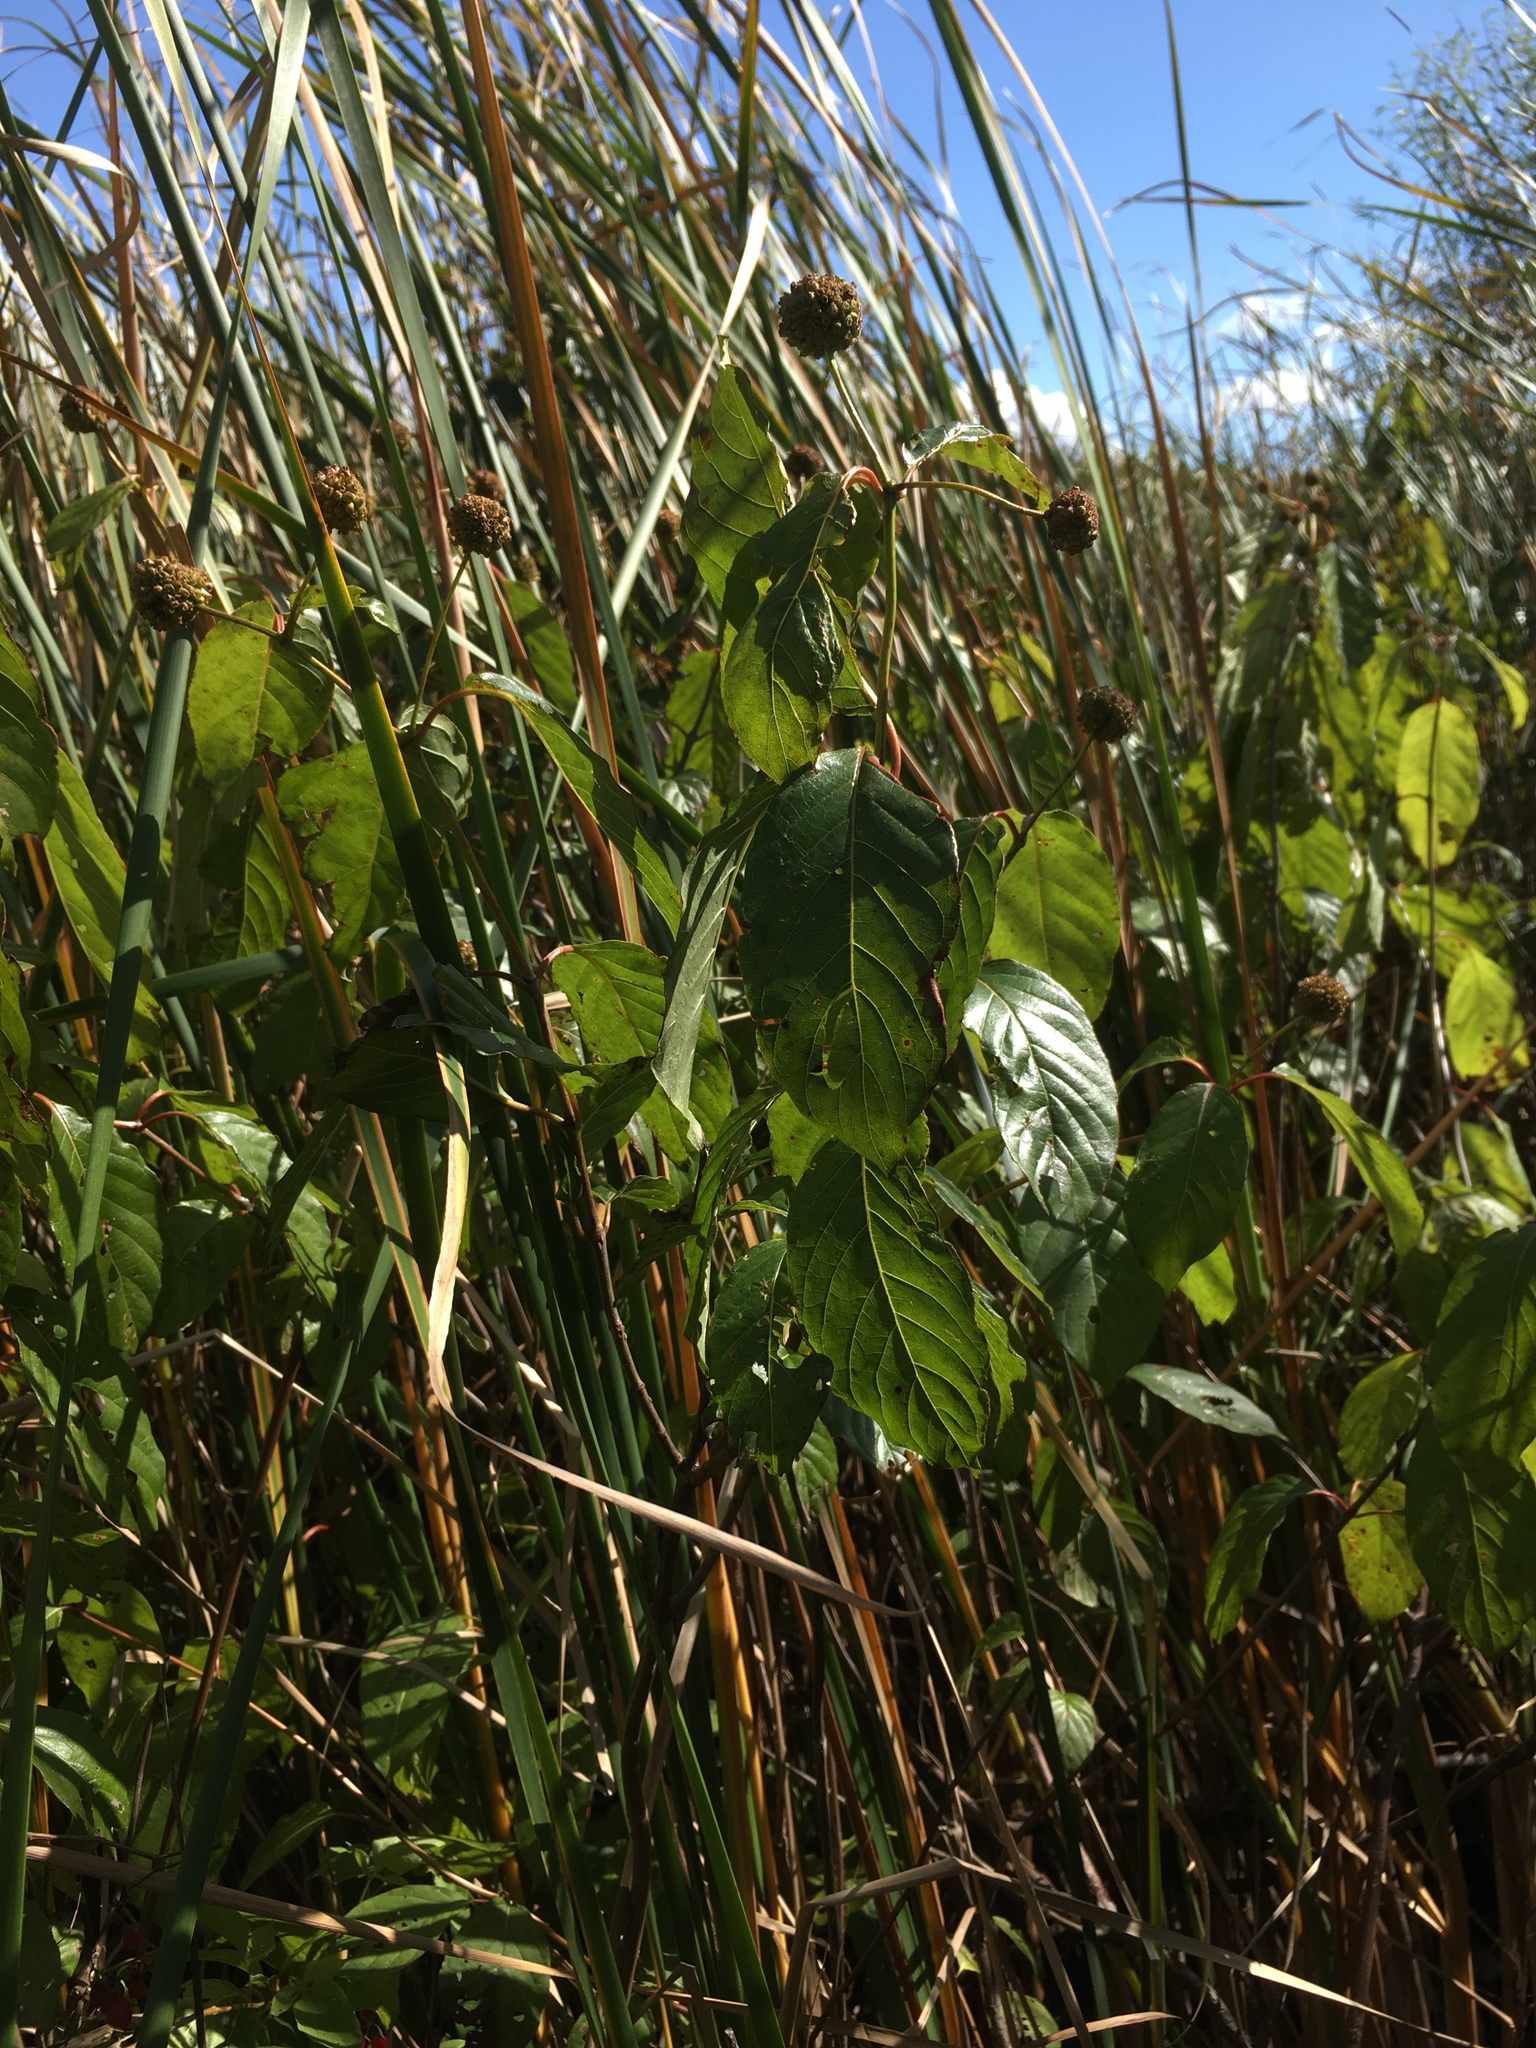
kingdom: Plantae
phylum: Tracheophyta
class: Magnoliopsida
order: Gentianales
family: Rubiaceae
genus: Cephalanthus
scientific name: Cephalanthus occidentalis
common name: Button-willow
